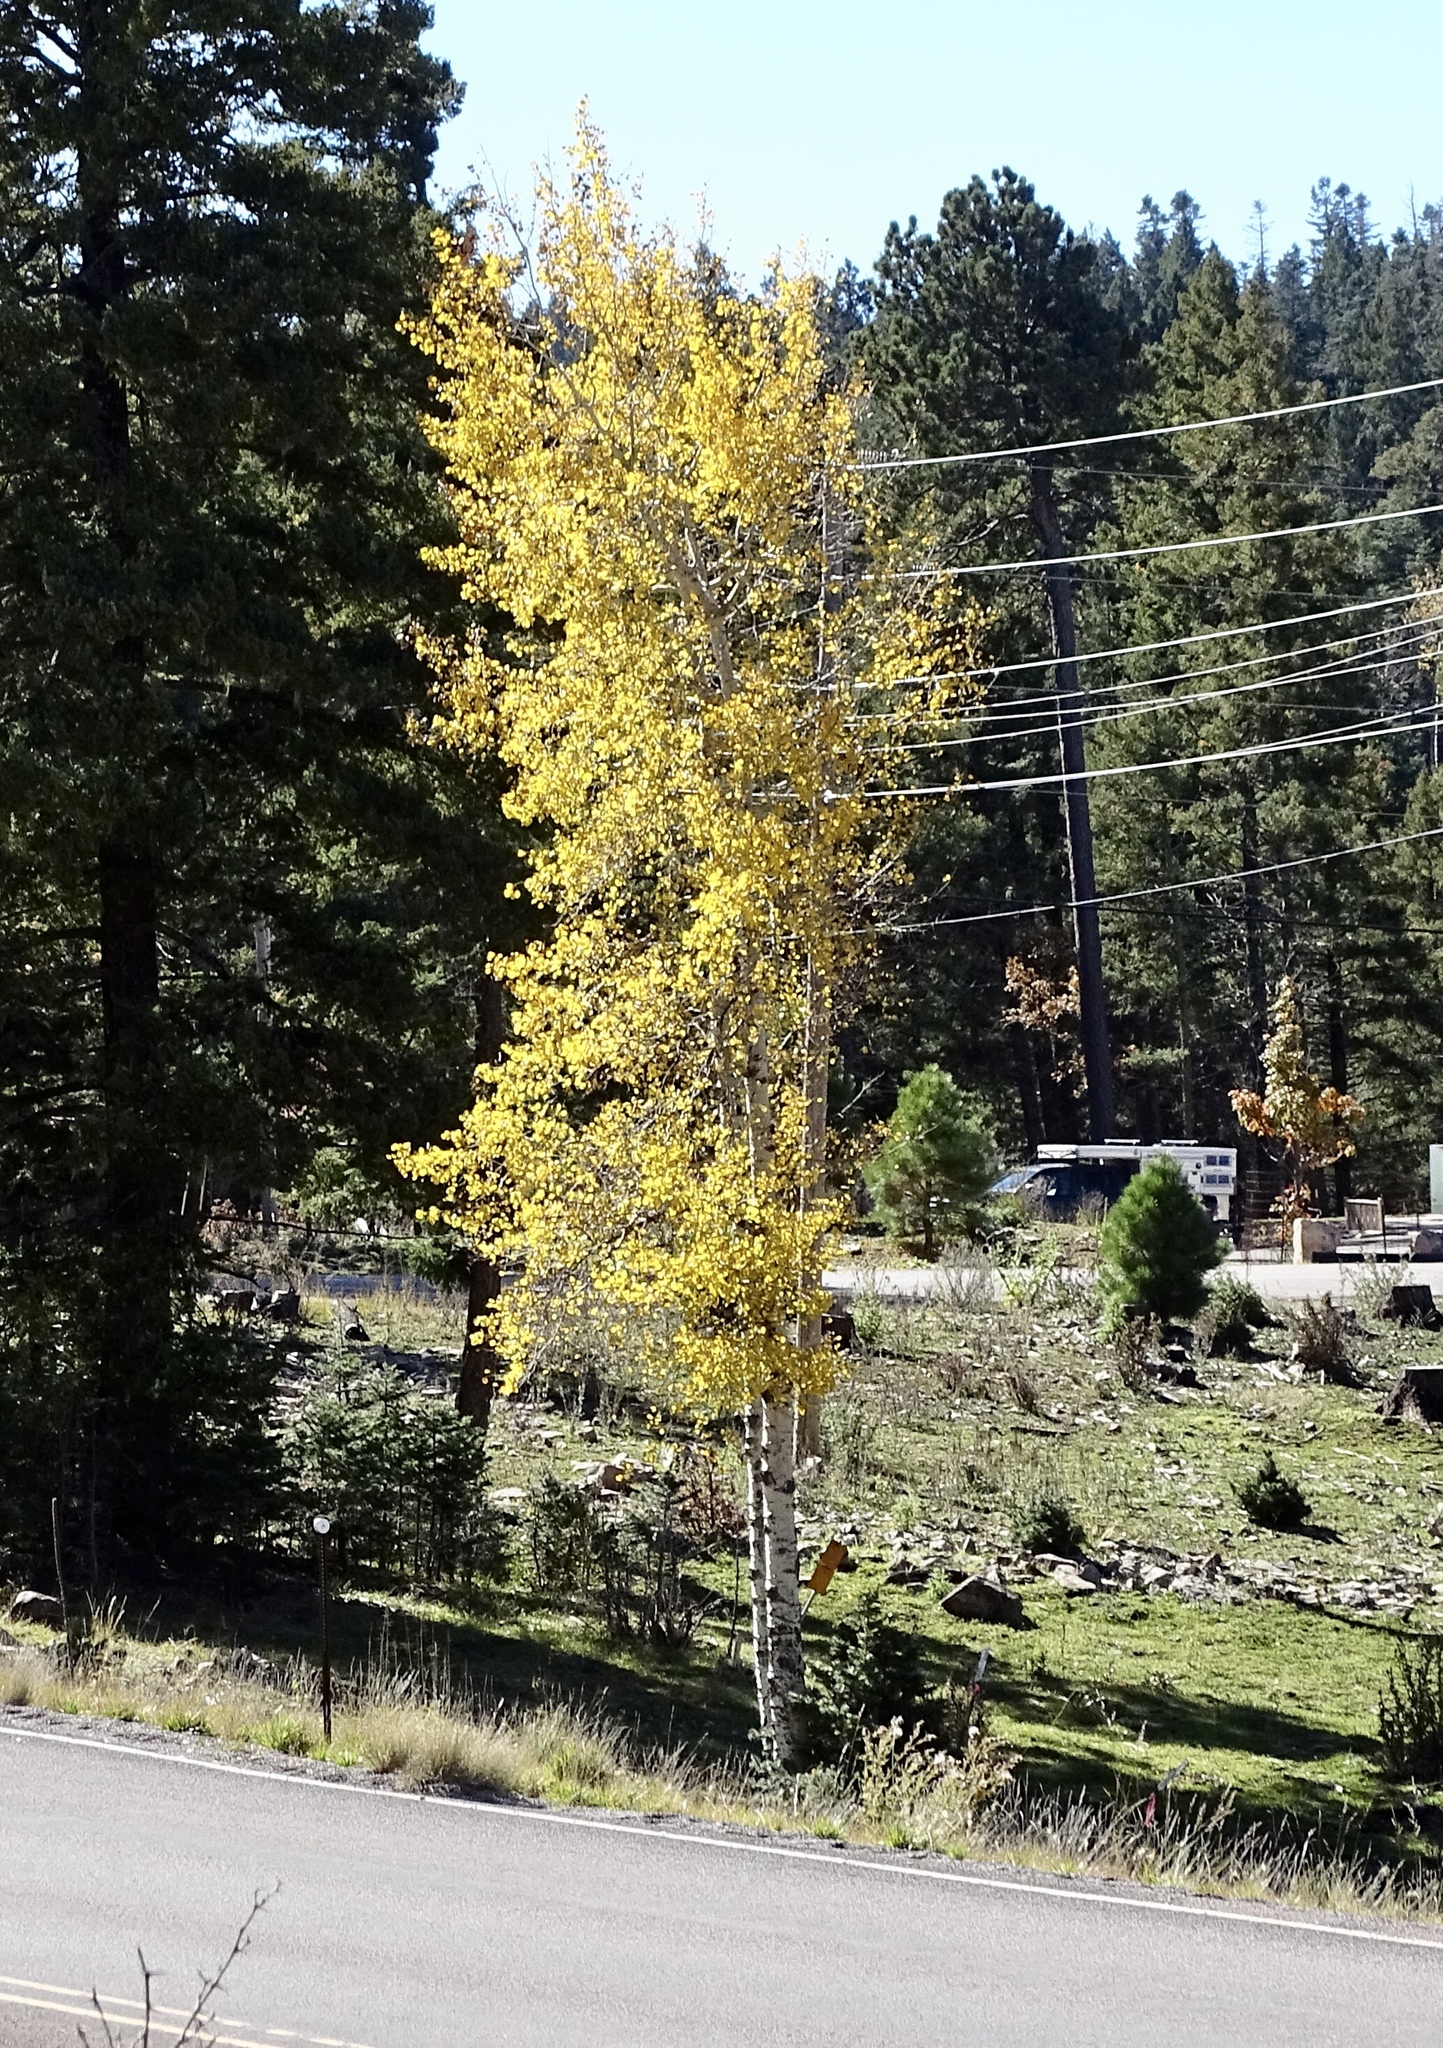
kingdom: Plantae
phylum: Tracheophyta
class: Magnoliopsida
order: Malpighiales
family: Salicaceae
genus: Populus
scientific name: Populus tremuloides
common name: Quaking aspen
